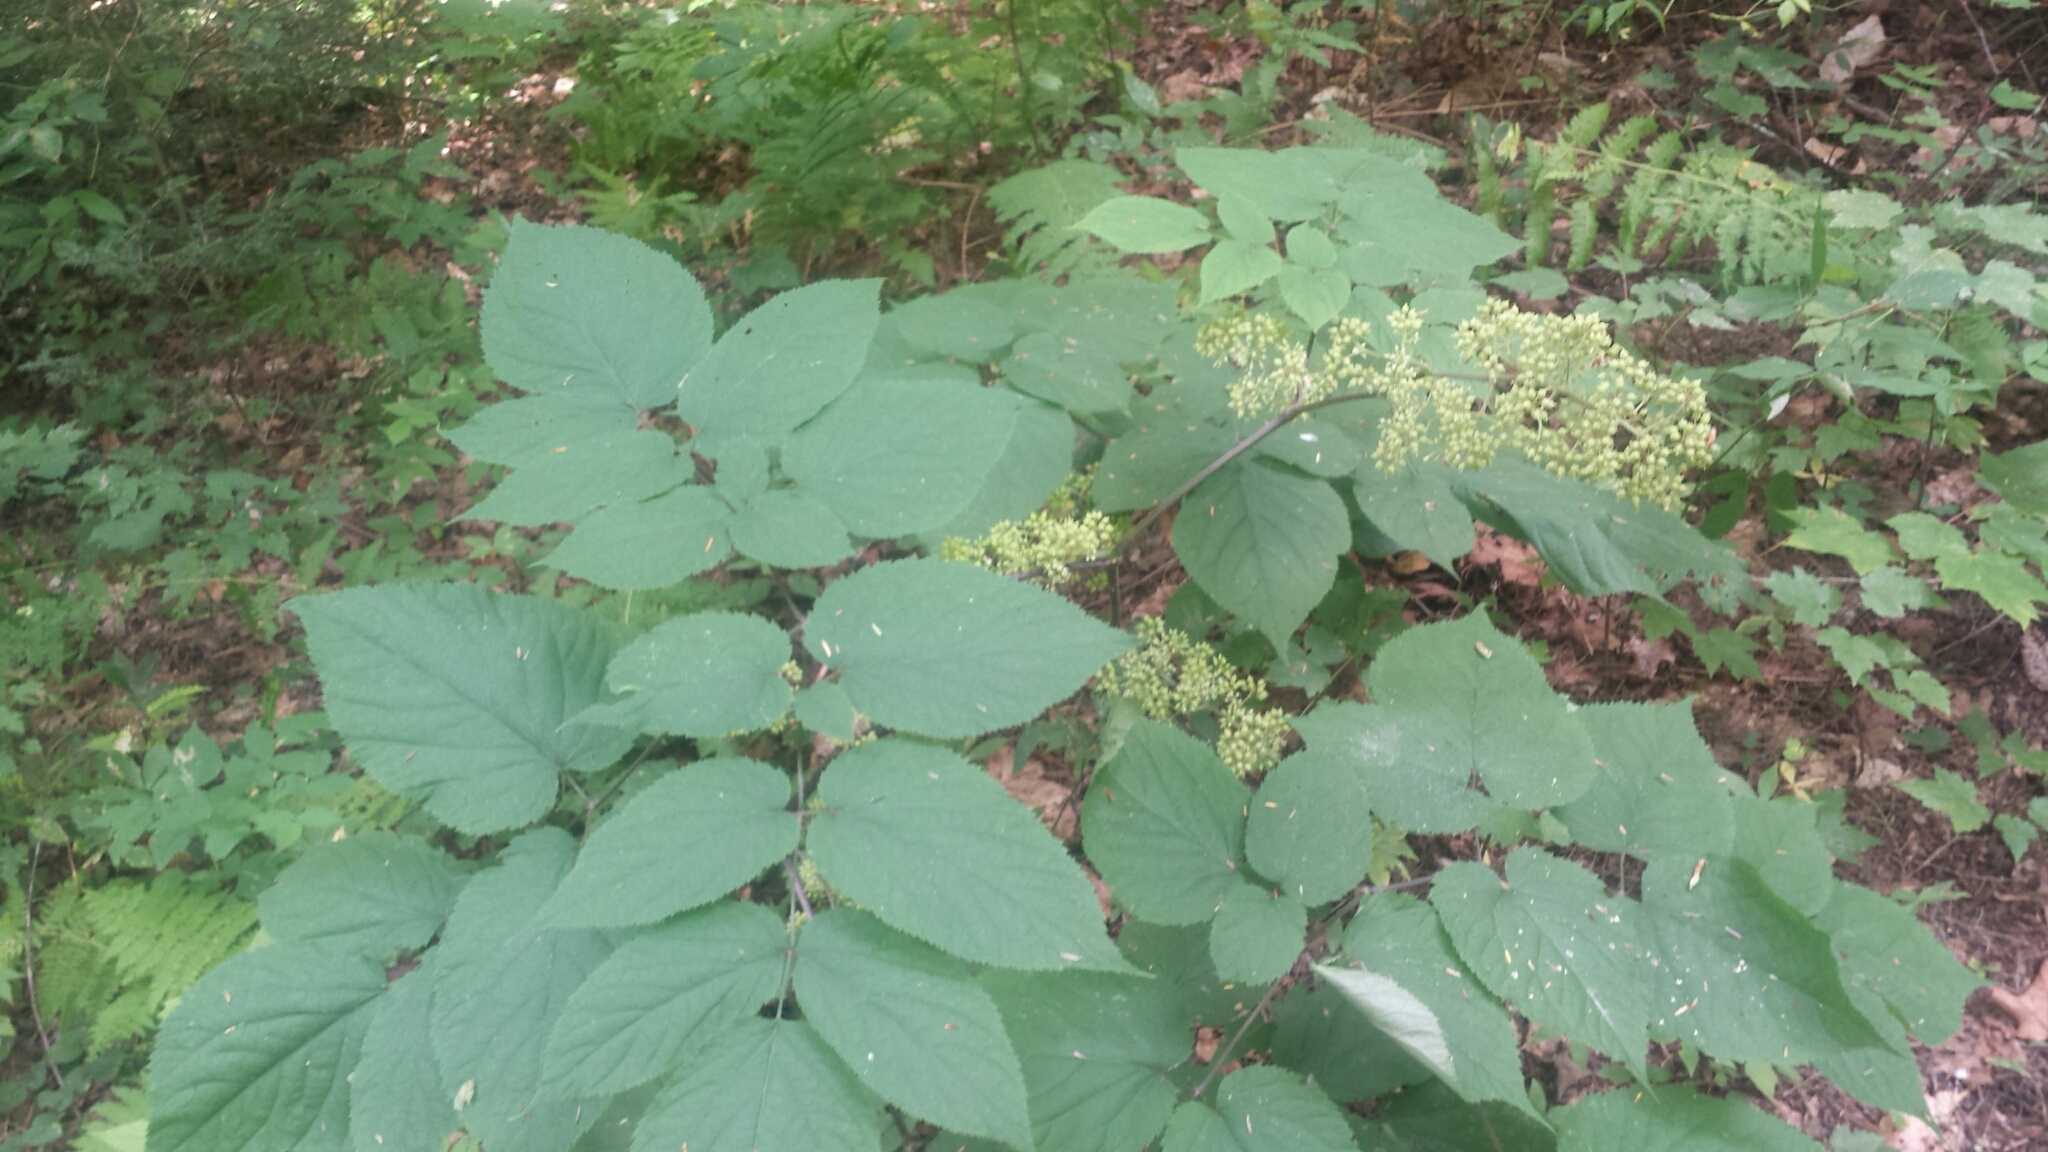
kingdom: Plantae
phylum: Tracheophyta
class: Magnoliopsida
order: Apiales
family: Araliaceae
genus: Aralia
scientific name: Aralia racemosa
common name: American-spikenard
